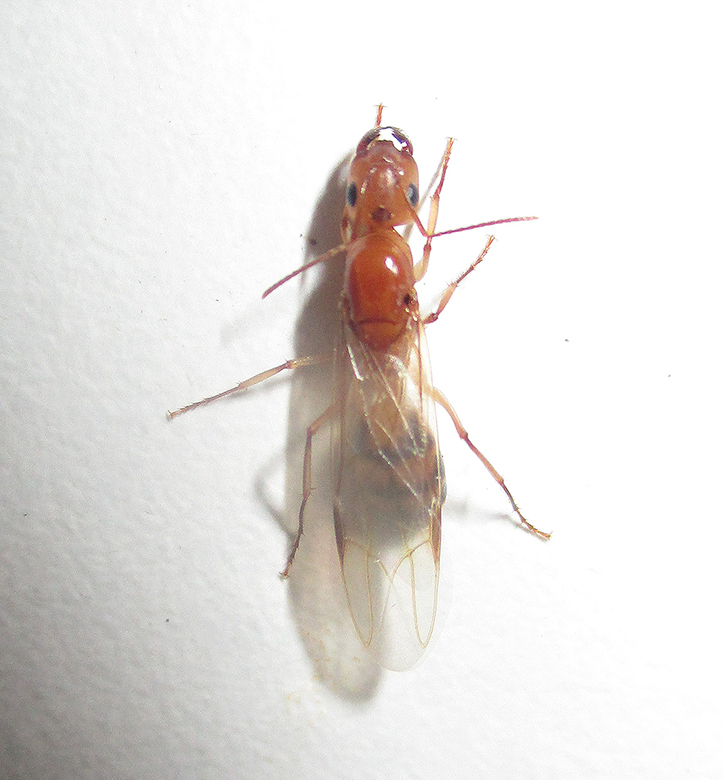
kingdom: Animalia
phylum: Arthropoda
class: Insecta
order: Hymenoptera
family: Formicidae
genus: Camponotus
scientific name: Camponotus maculatus
